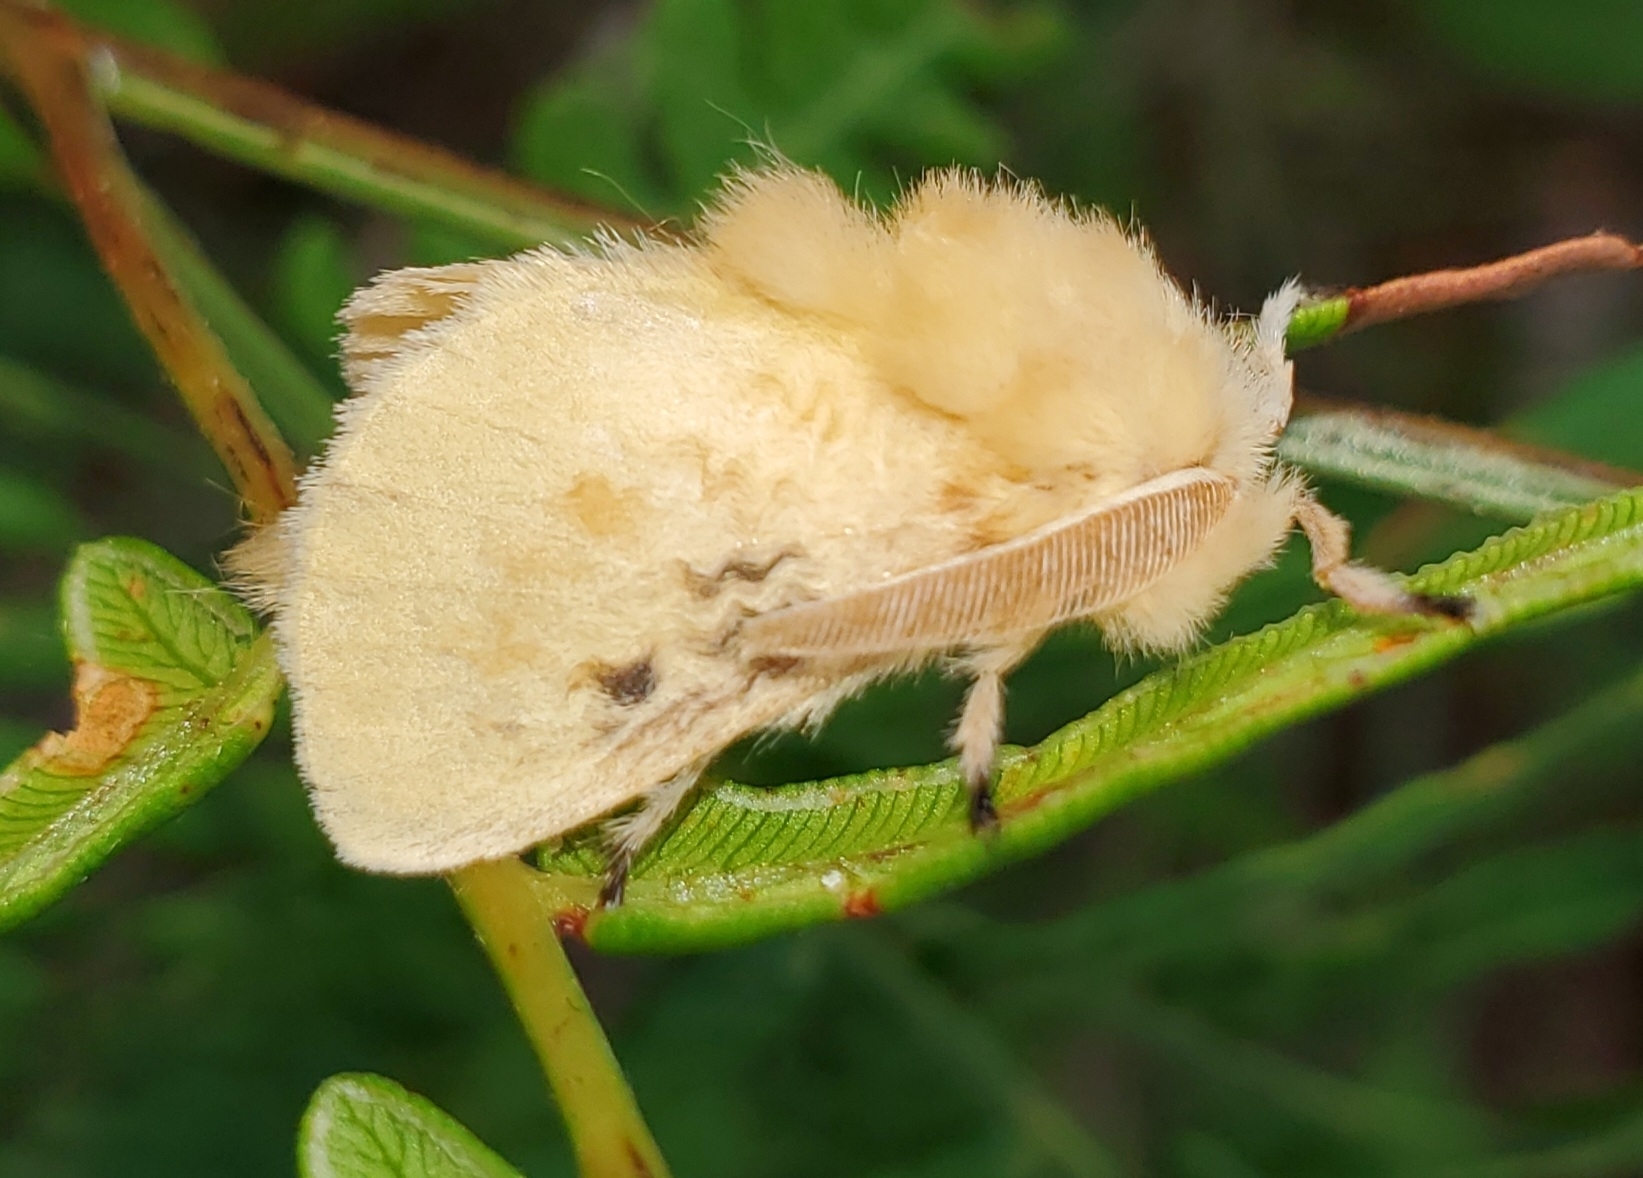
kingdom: Animalia
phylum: Arthropoda
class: Insecta
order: Lepidoptera
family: Megalopygidae
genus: Megalopyge
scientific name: Megalopyge crispata
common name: Black-waved flannel moth
